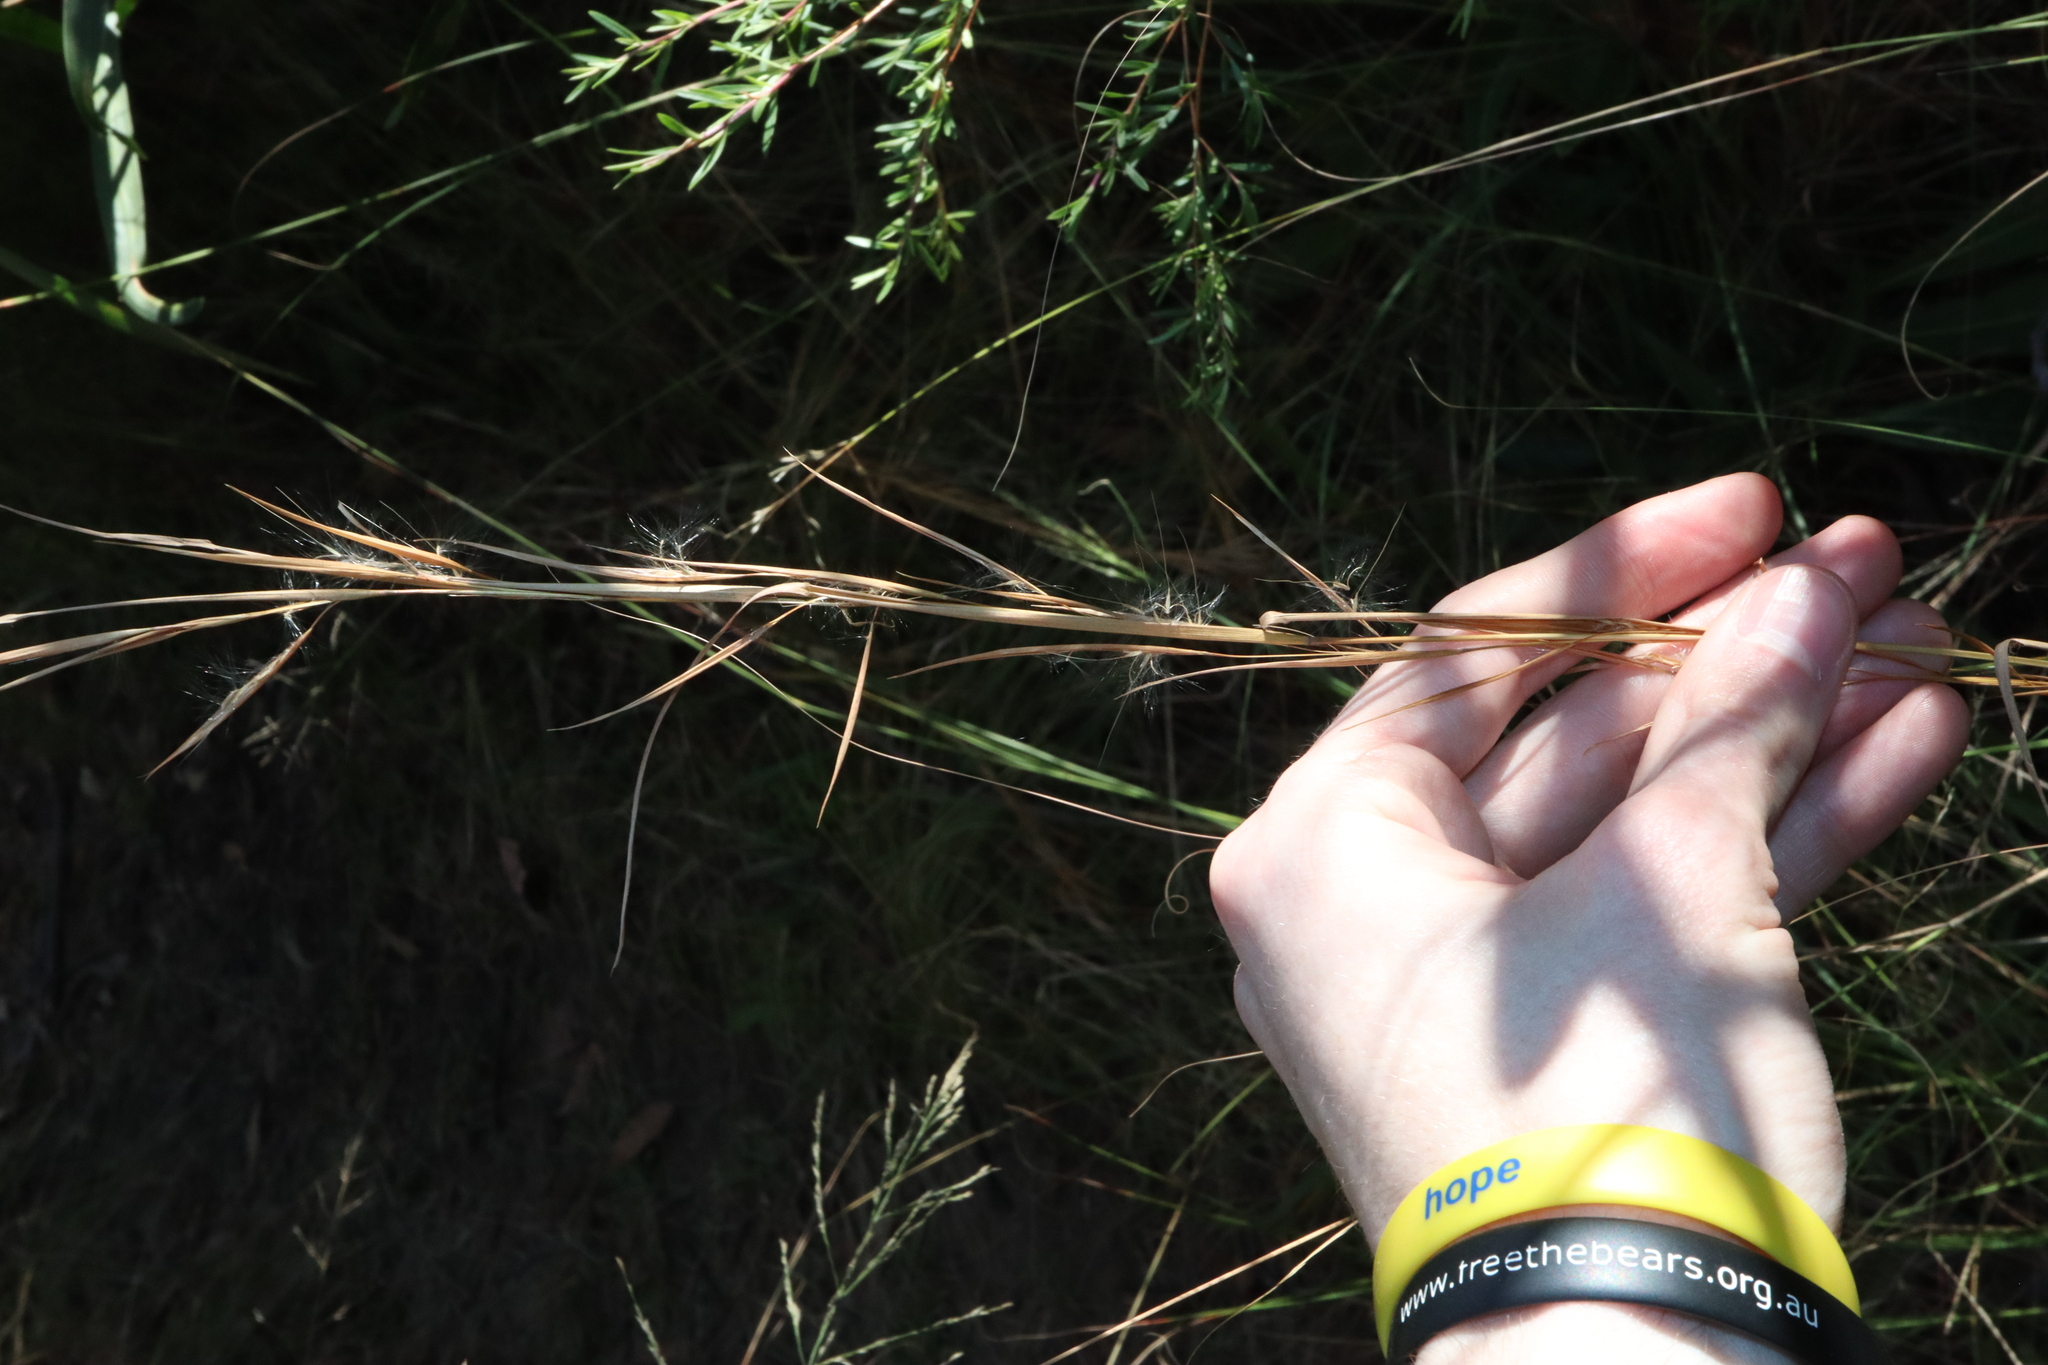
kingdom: Plantae
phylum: Tracheophyta
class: Liliopsida
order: Poales
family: Poaceae
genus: Andropogon
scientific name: Andropogon virginicus
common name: Broomsedge bluestem
